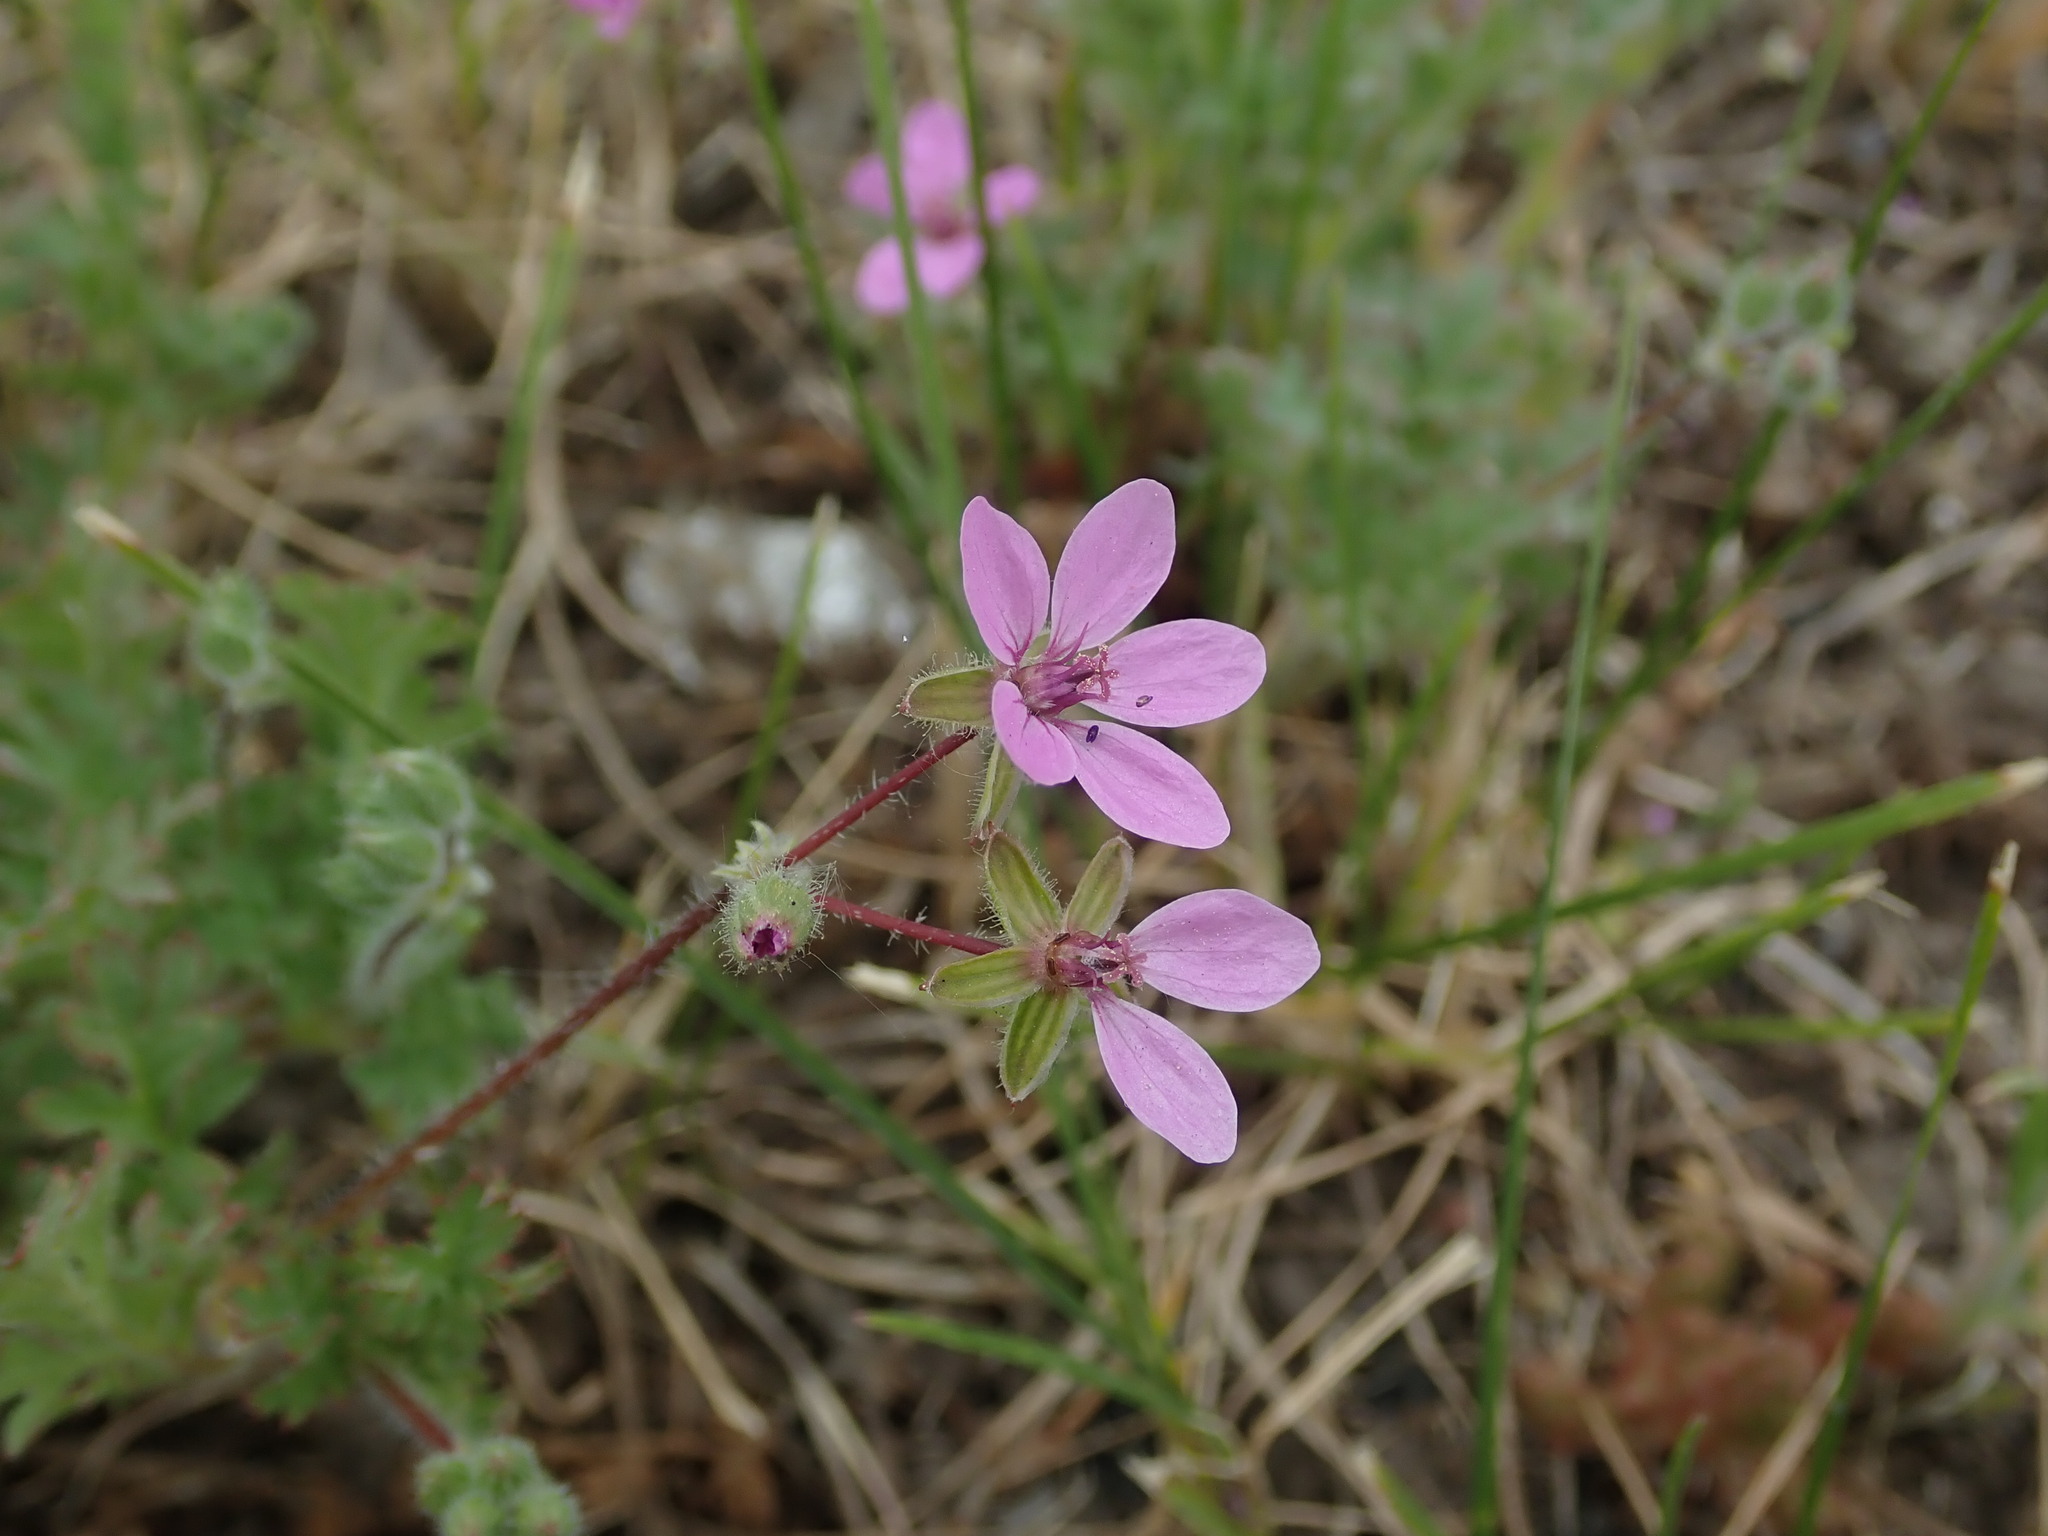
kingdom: Plantae
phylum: Tracheophyta
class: Magnoliopsida
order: Geraniales
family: Geraniaceae
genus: Erodium
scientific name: Erodium cicutarium
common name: Common stork's-bill
